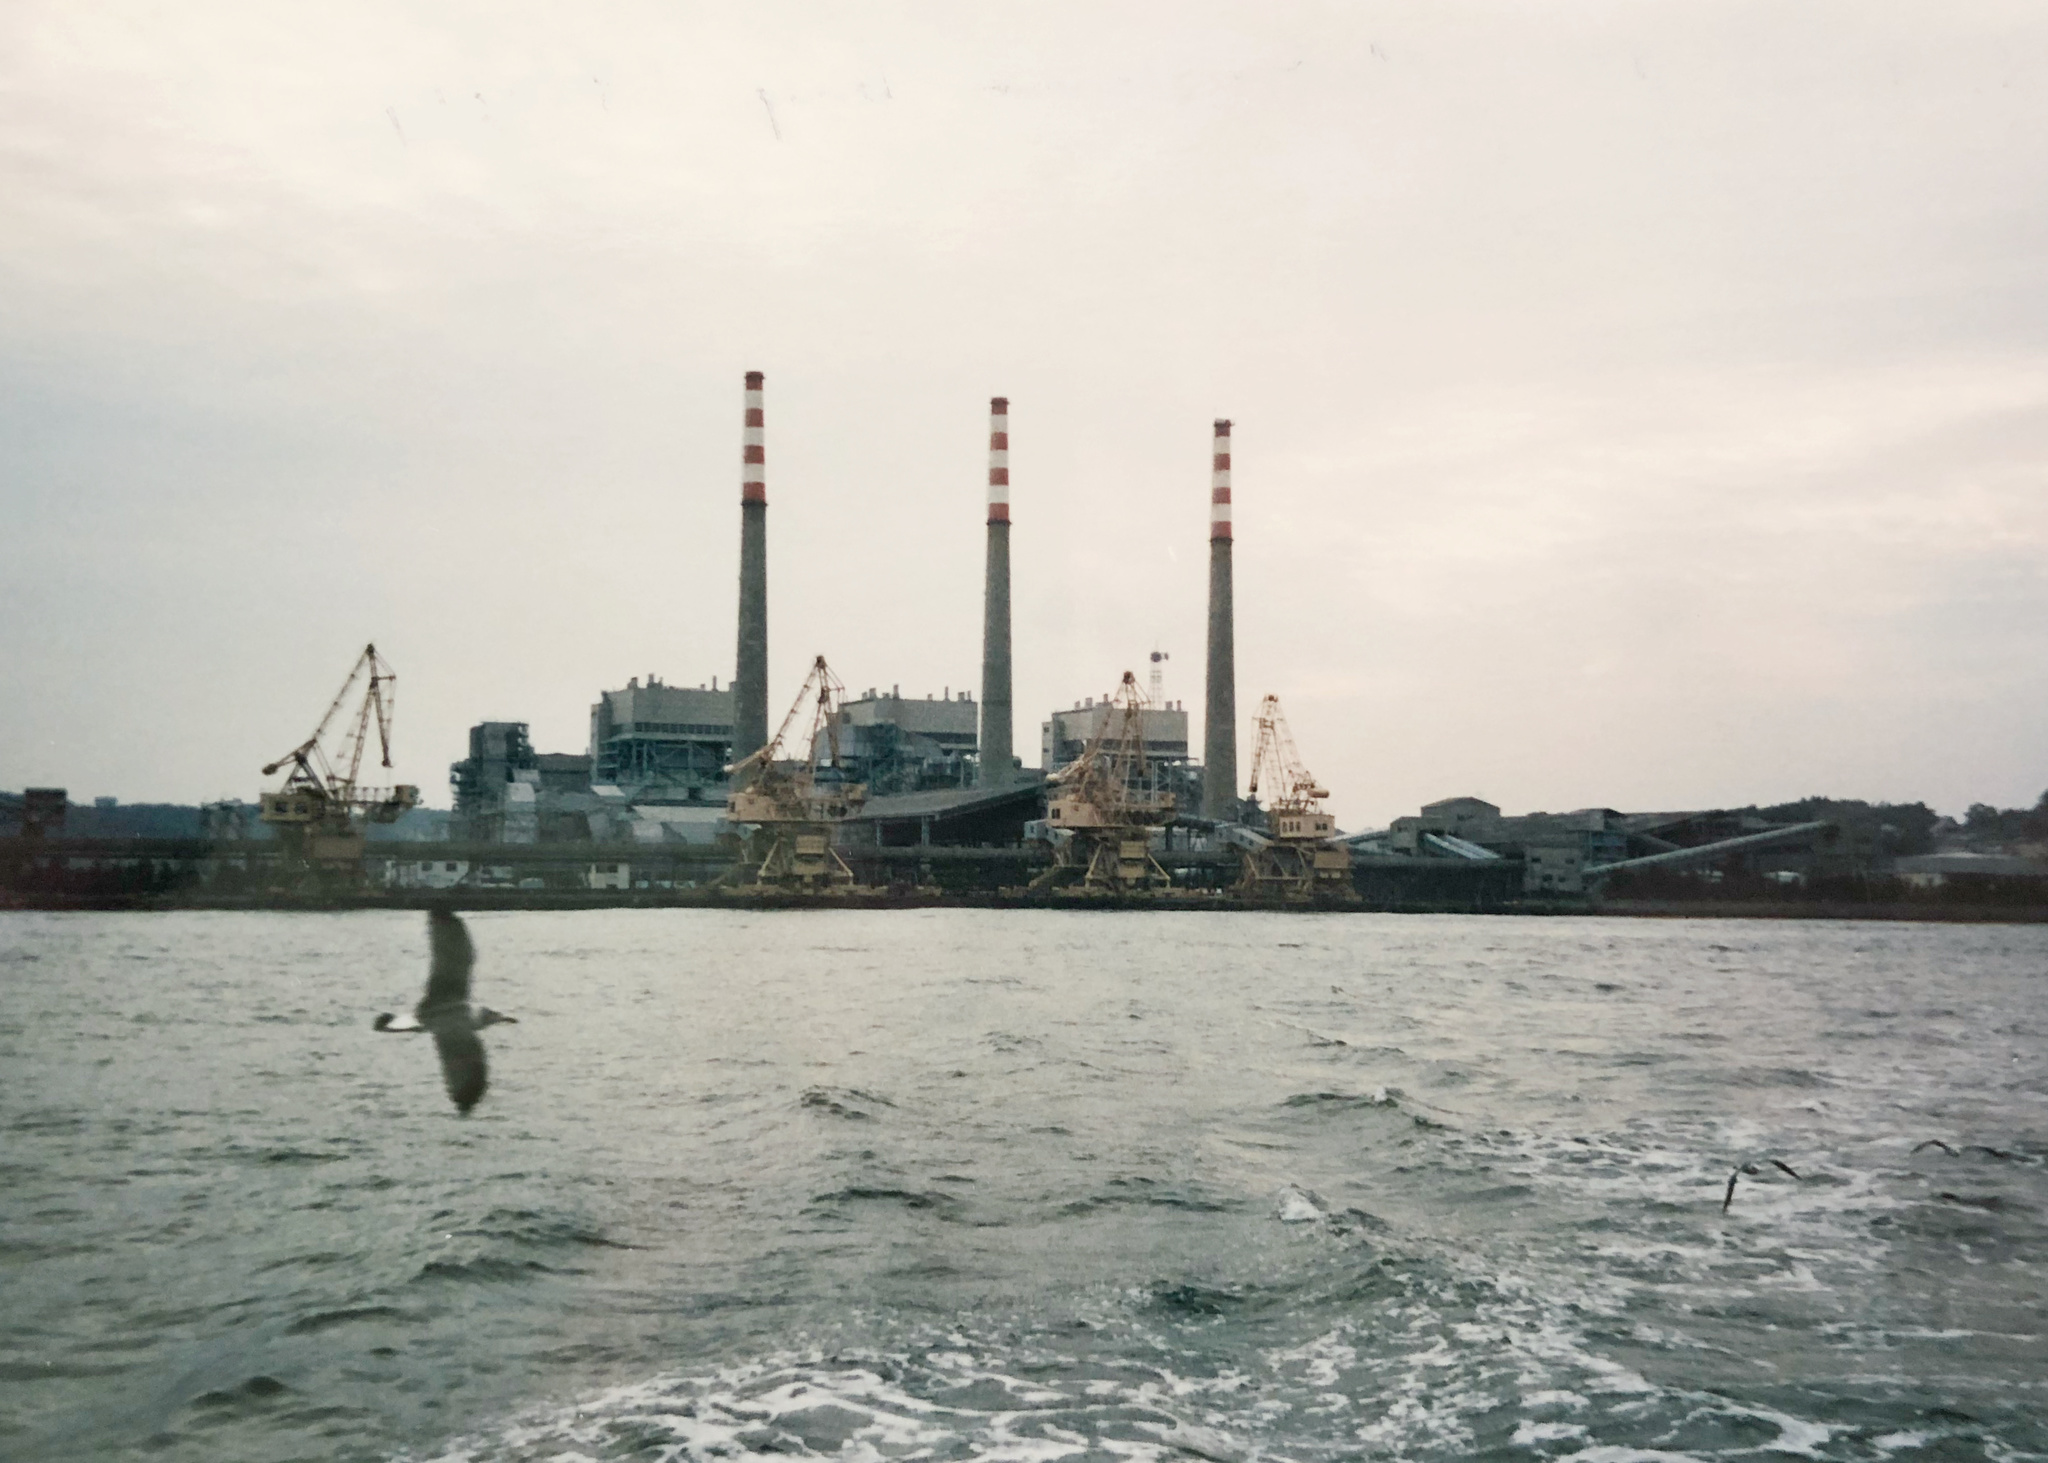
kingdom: Animalia
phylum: Chordata
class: Aves
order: Charadriiformes
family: Laridae
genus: Larus
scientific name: Larus crassirostris
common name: Black-tailed gull
